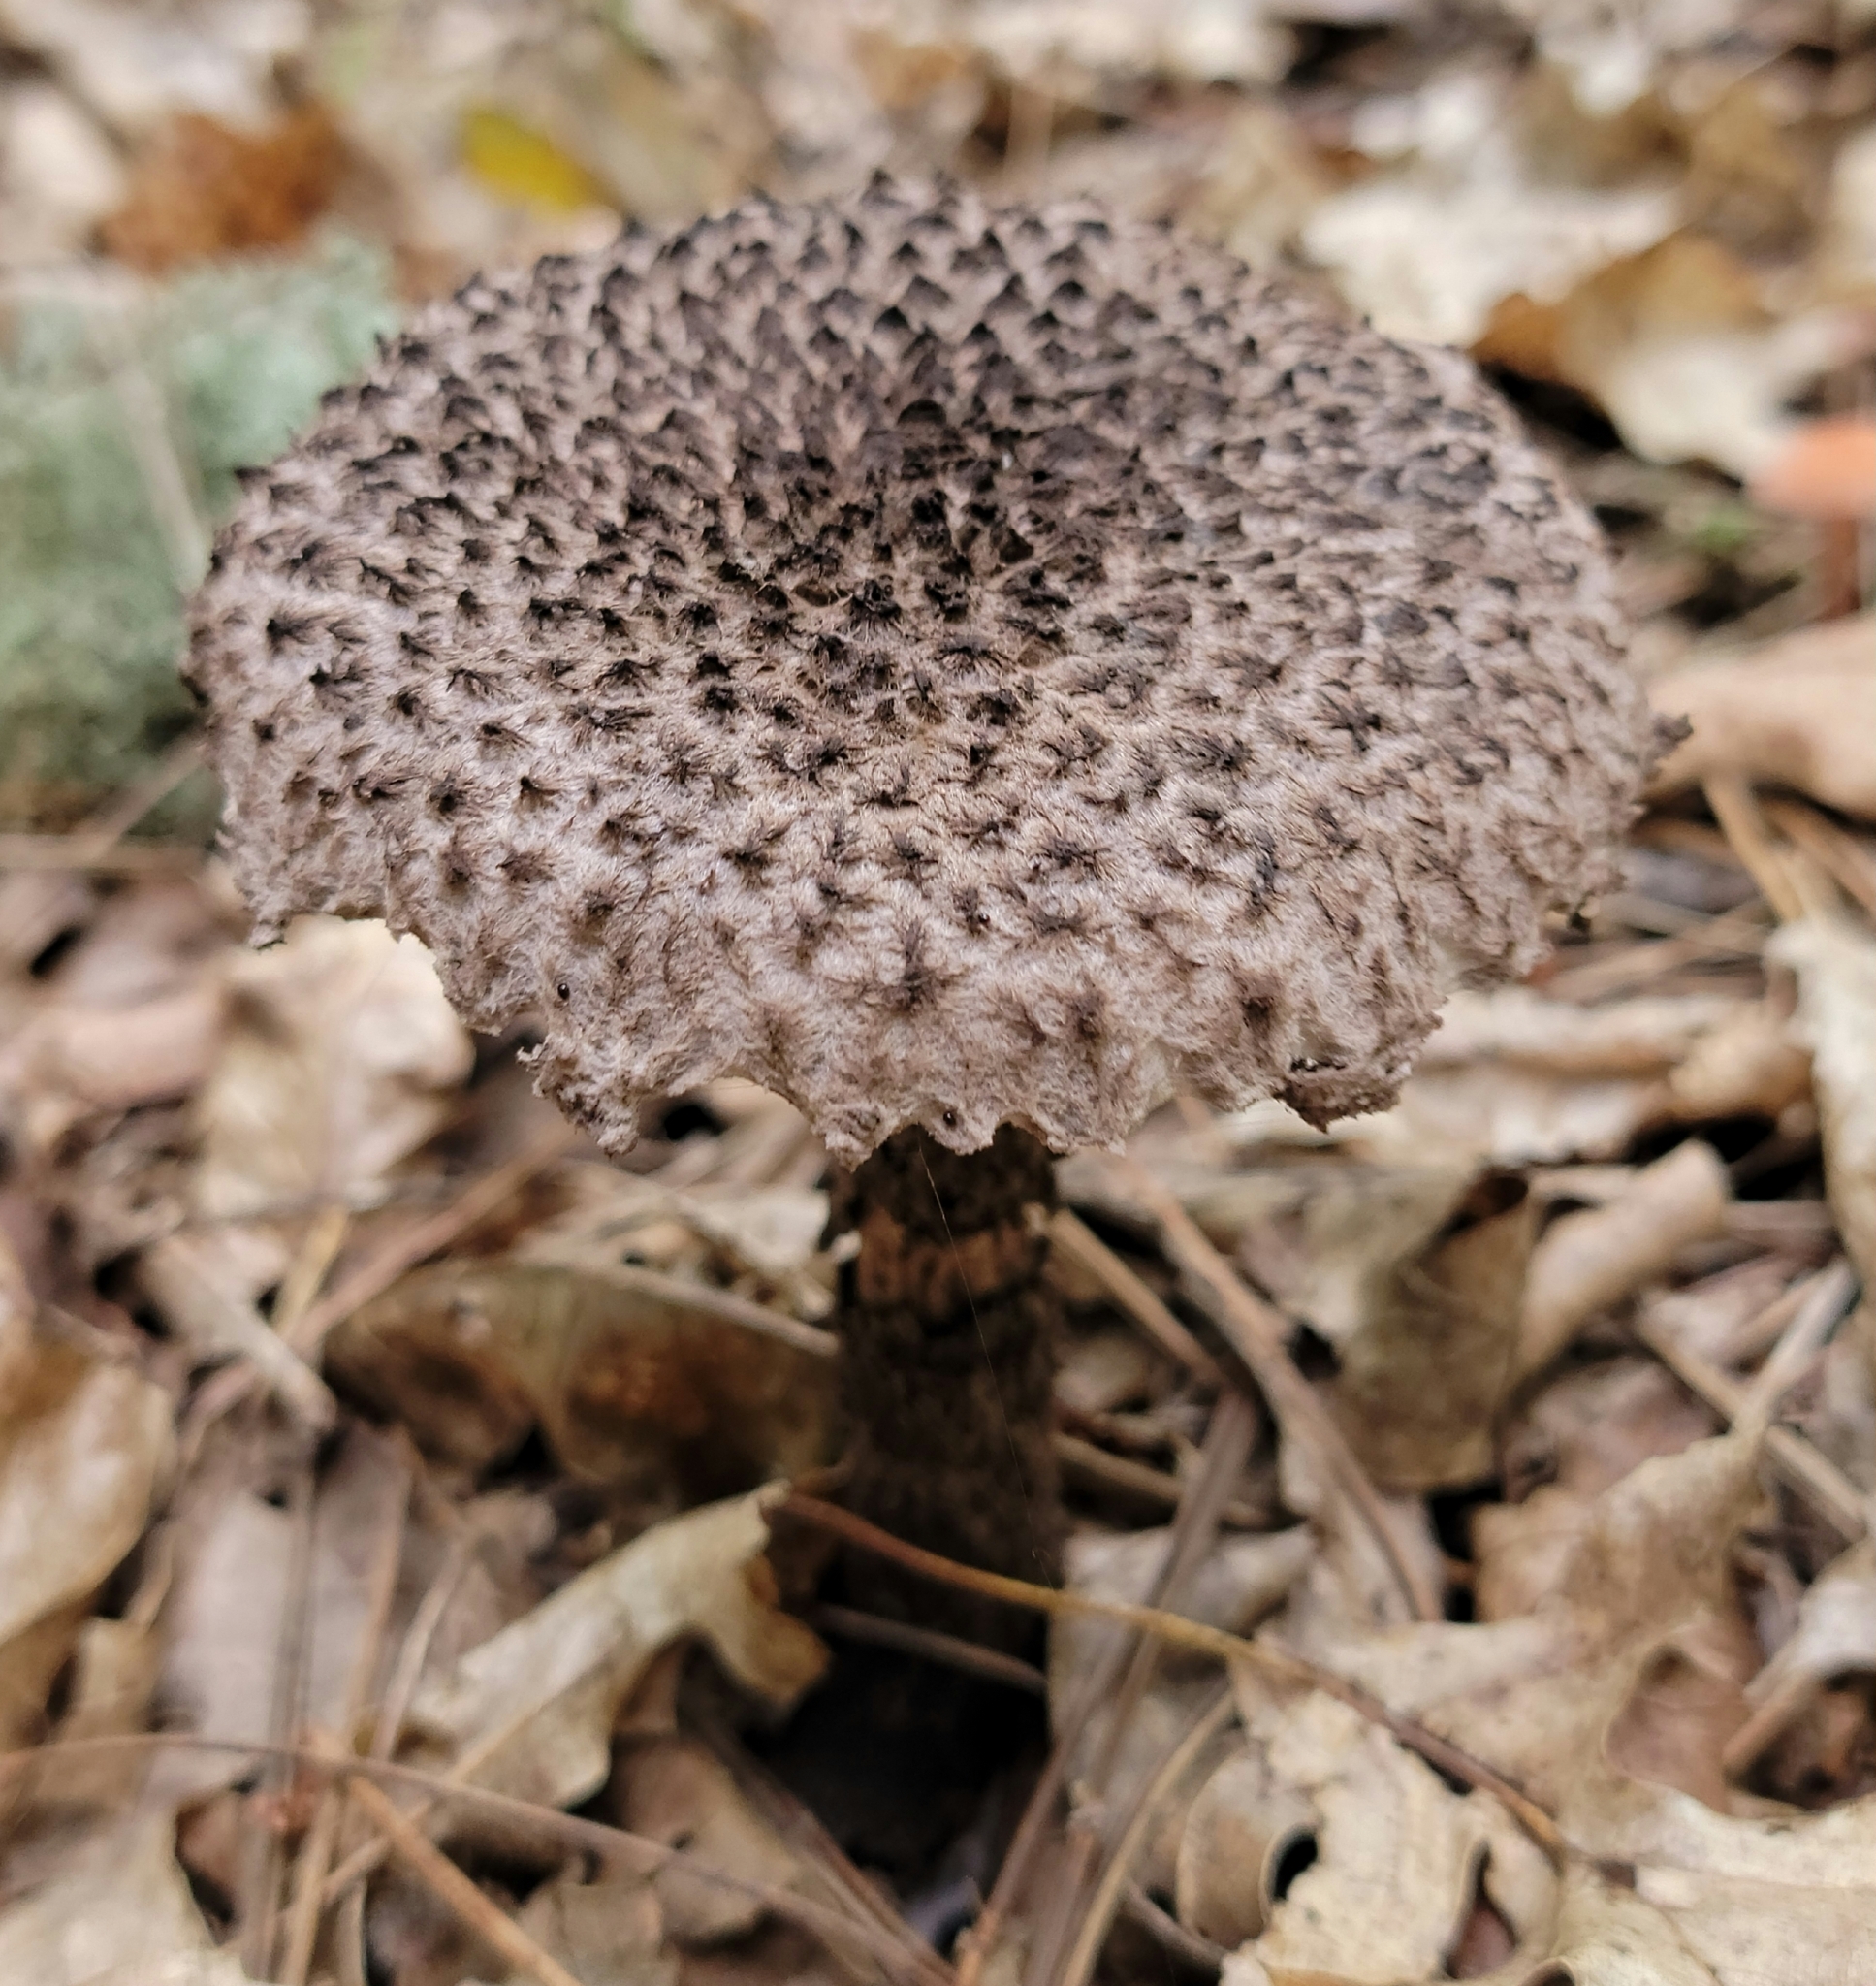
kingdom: Fungi
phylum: Basidiomycota
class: Agaricomycetes
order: Boletales
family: Boletaceae
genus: Strobilomyces
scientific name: Strobilomyces strobilaceus
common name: Old man of the woods
